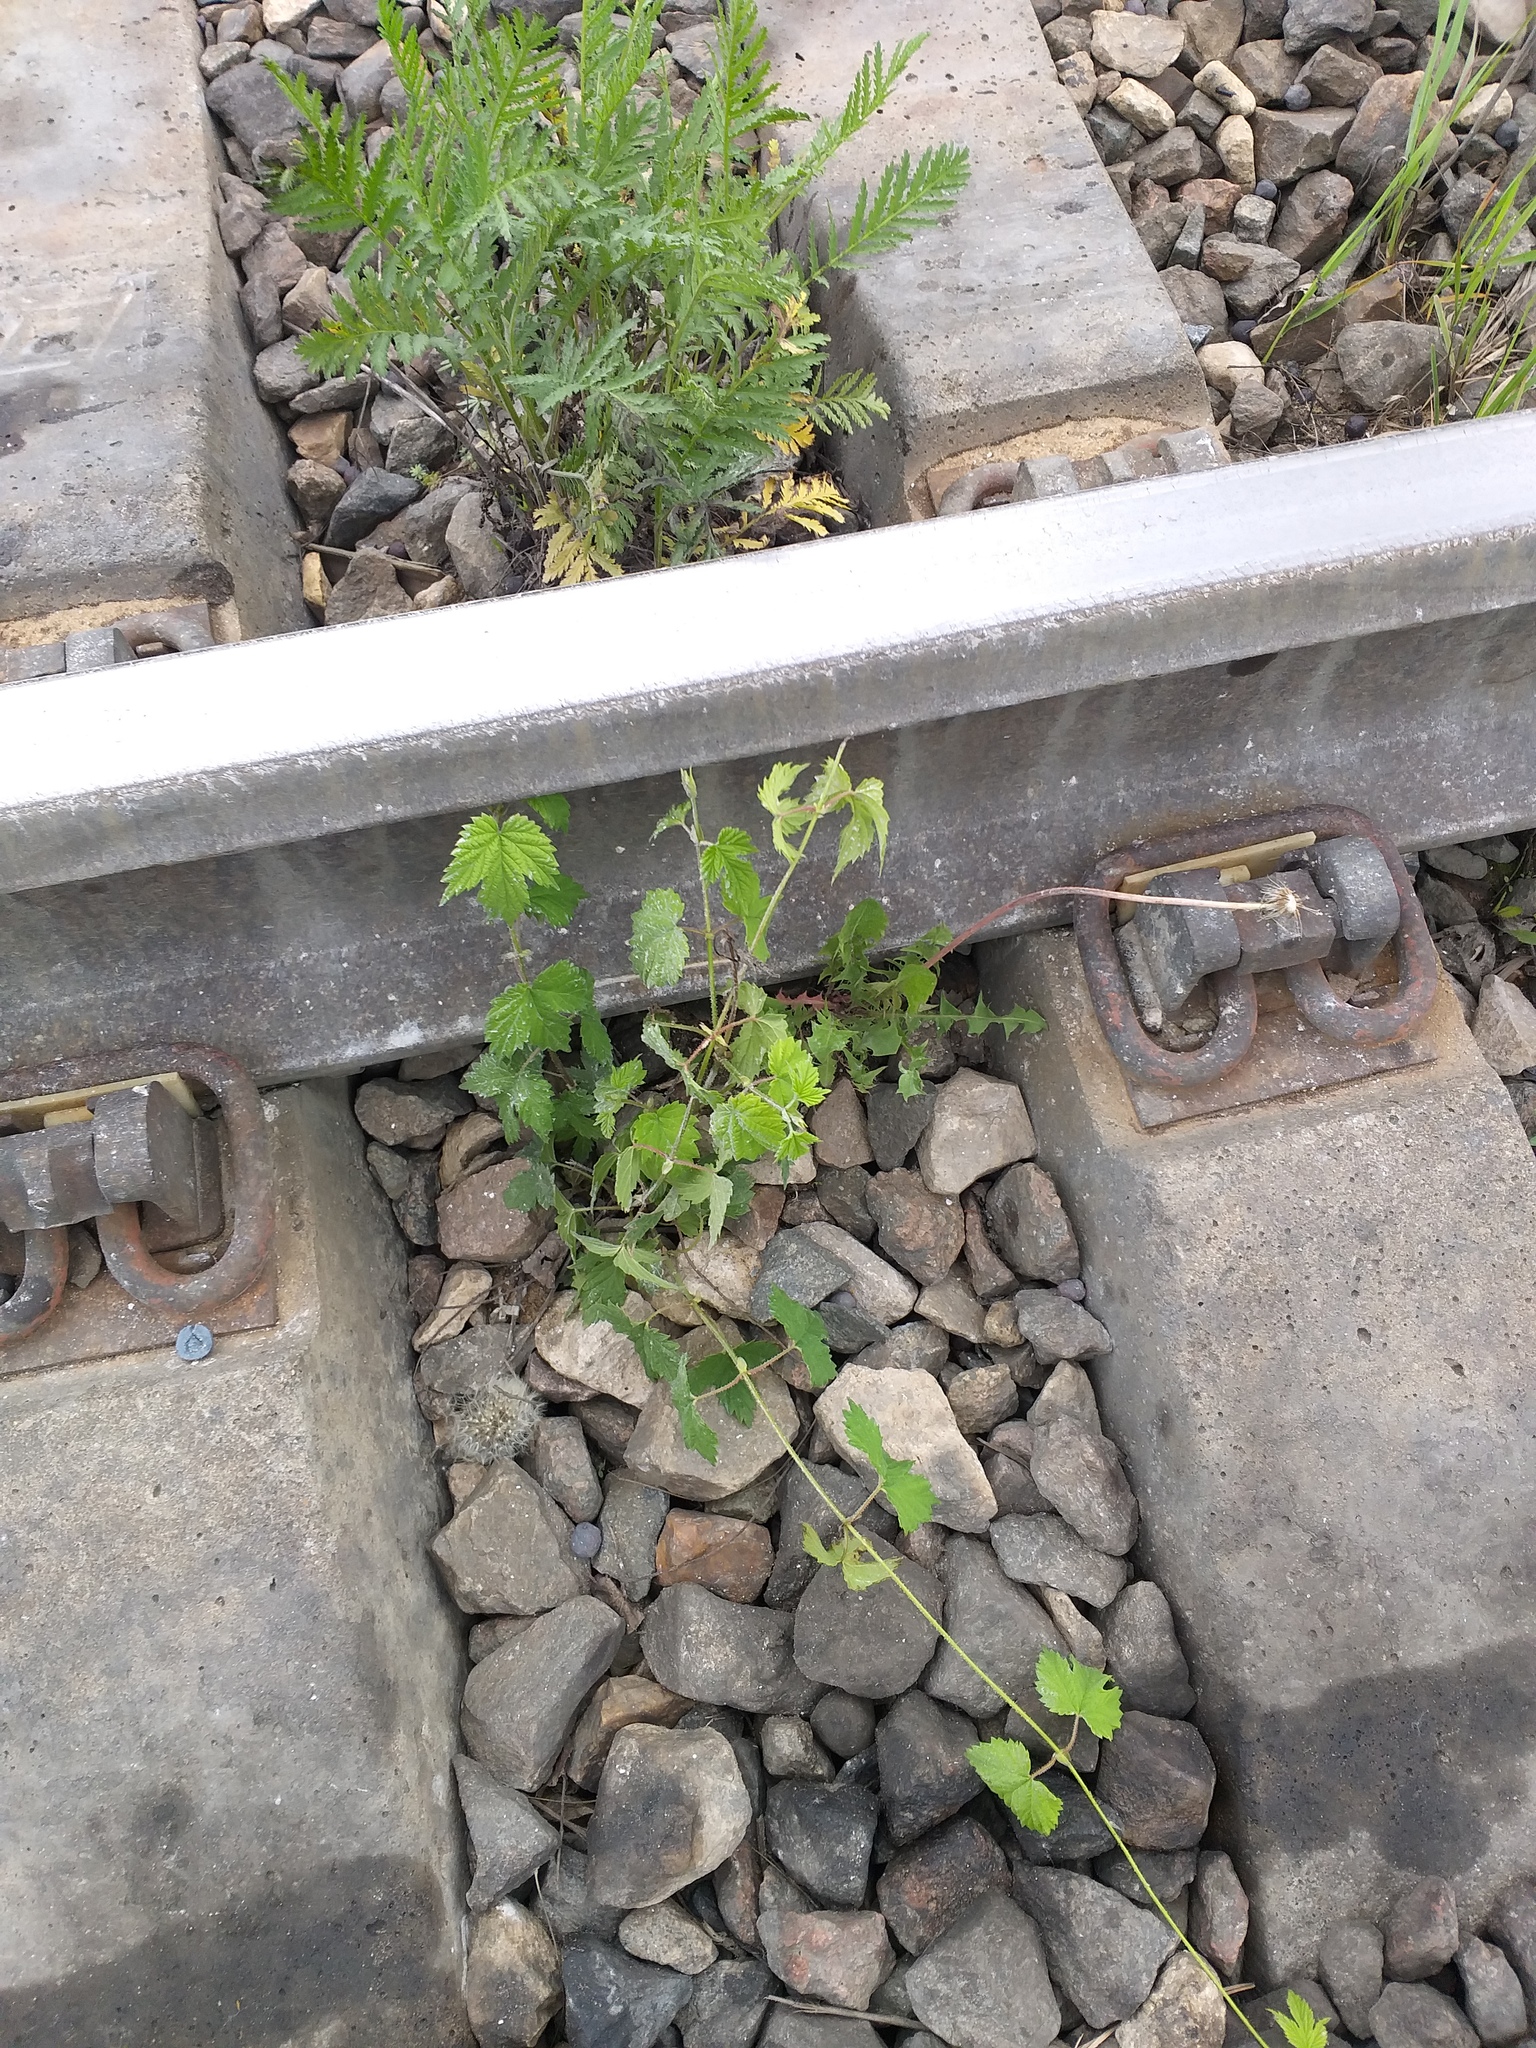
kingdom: Plantae
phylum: Tracheophyta
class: Magnoliopsida
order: Rosales
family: Cannabaceae
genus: Humulus
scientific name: Humulus lupulus
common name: Hop
